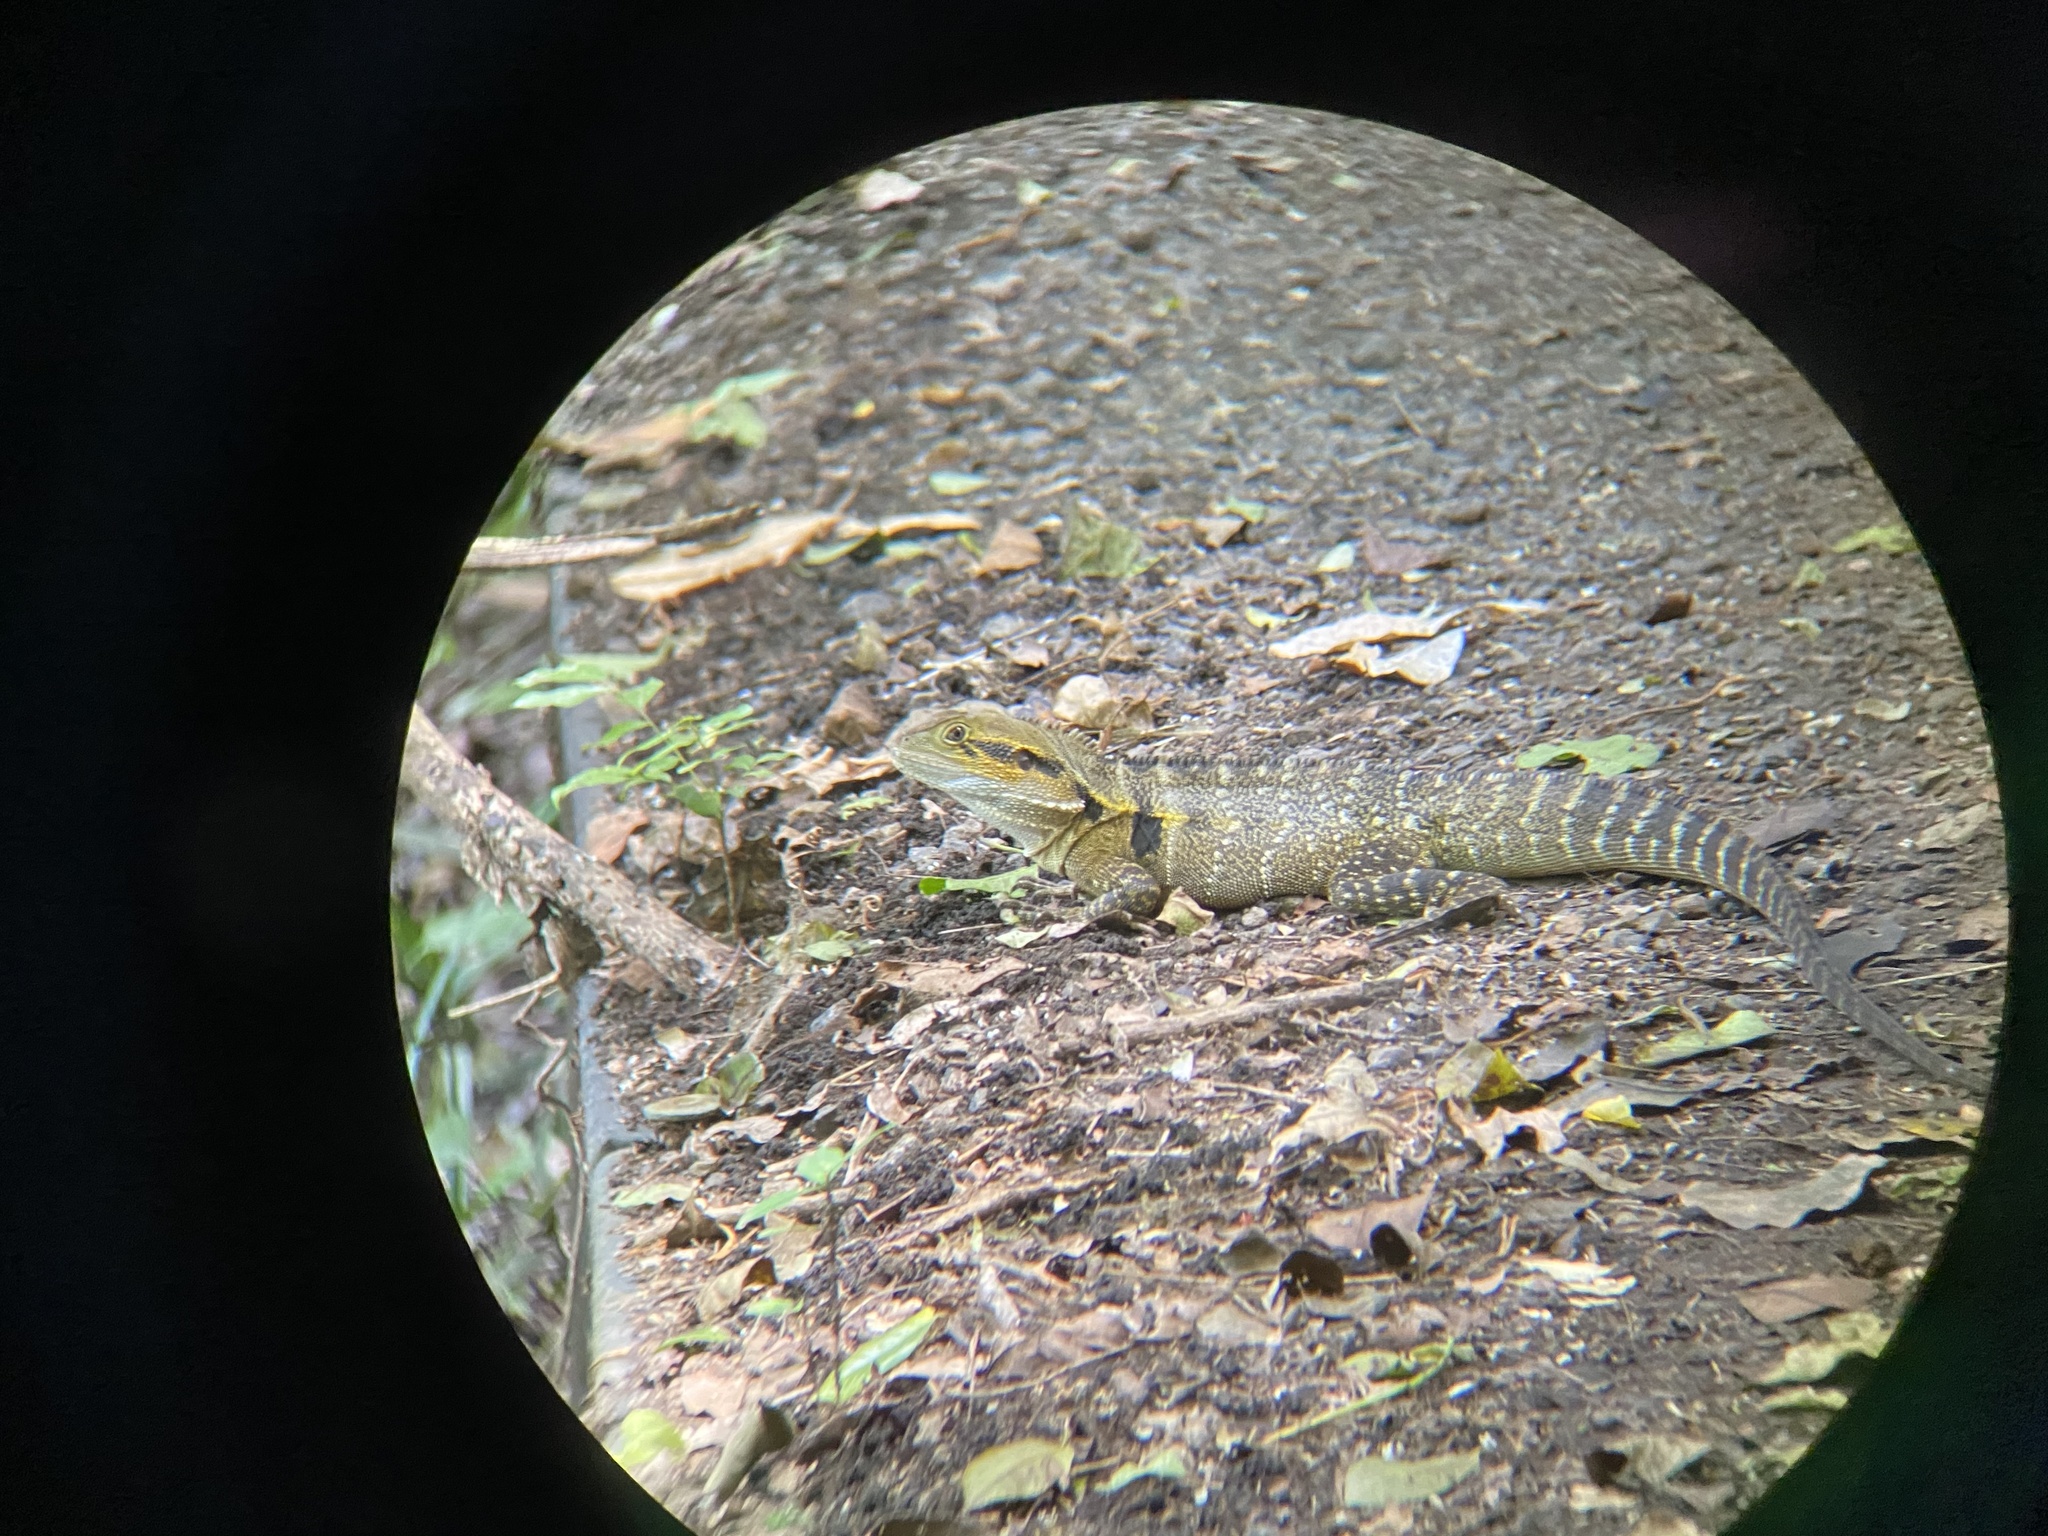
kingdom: Animalia
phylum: Chordata
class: Squamata
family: Agamidae
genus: Intellagama
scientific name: Intellagama lesueurii
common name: Eastern water dragon
